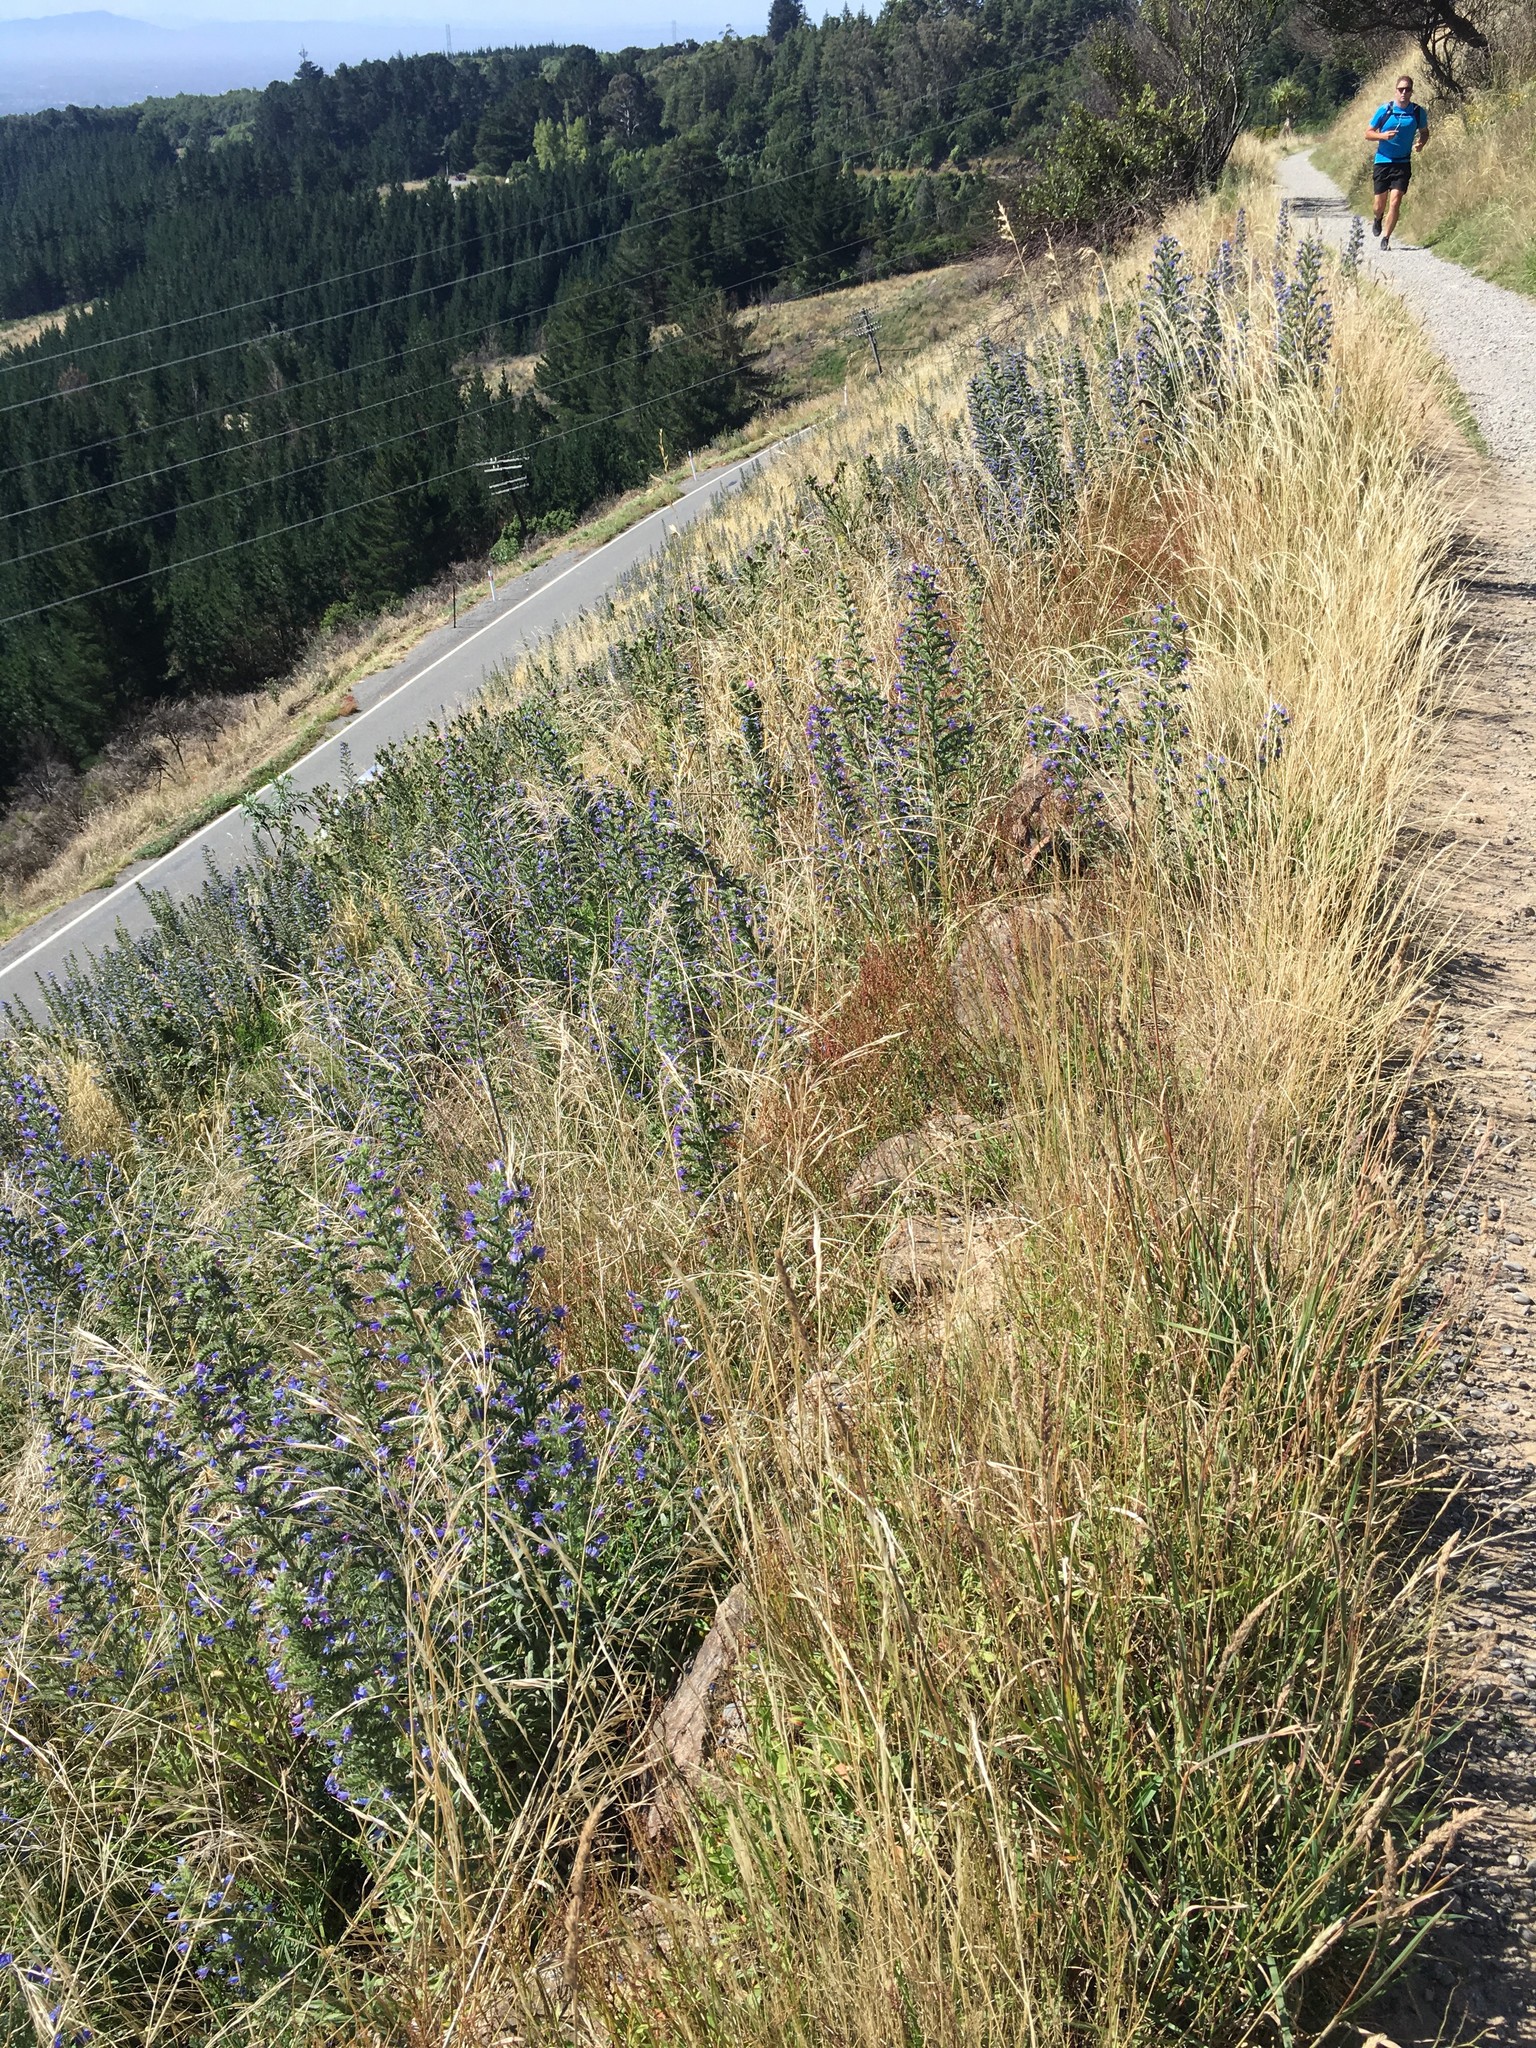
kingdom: Plantae
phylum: Tracheophyta
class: Magnoliopsida
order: Boraginales
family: Boraginaceae
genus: Echium
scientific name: Echium vulgare
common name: Common viper's bugloss
